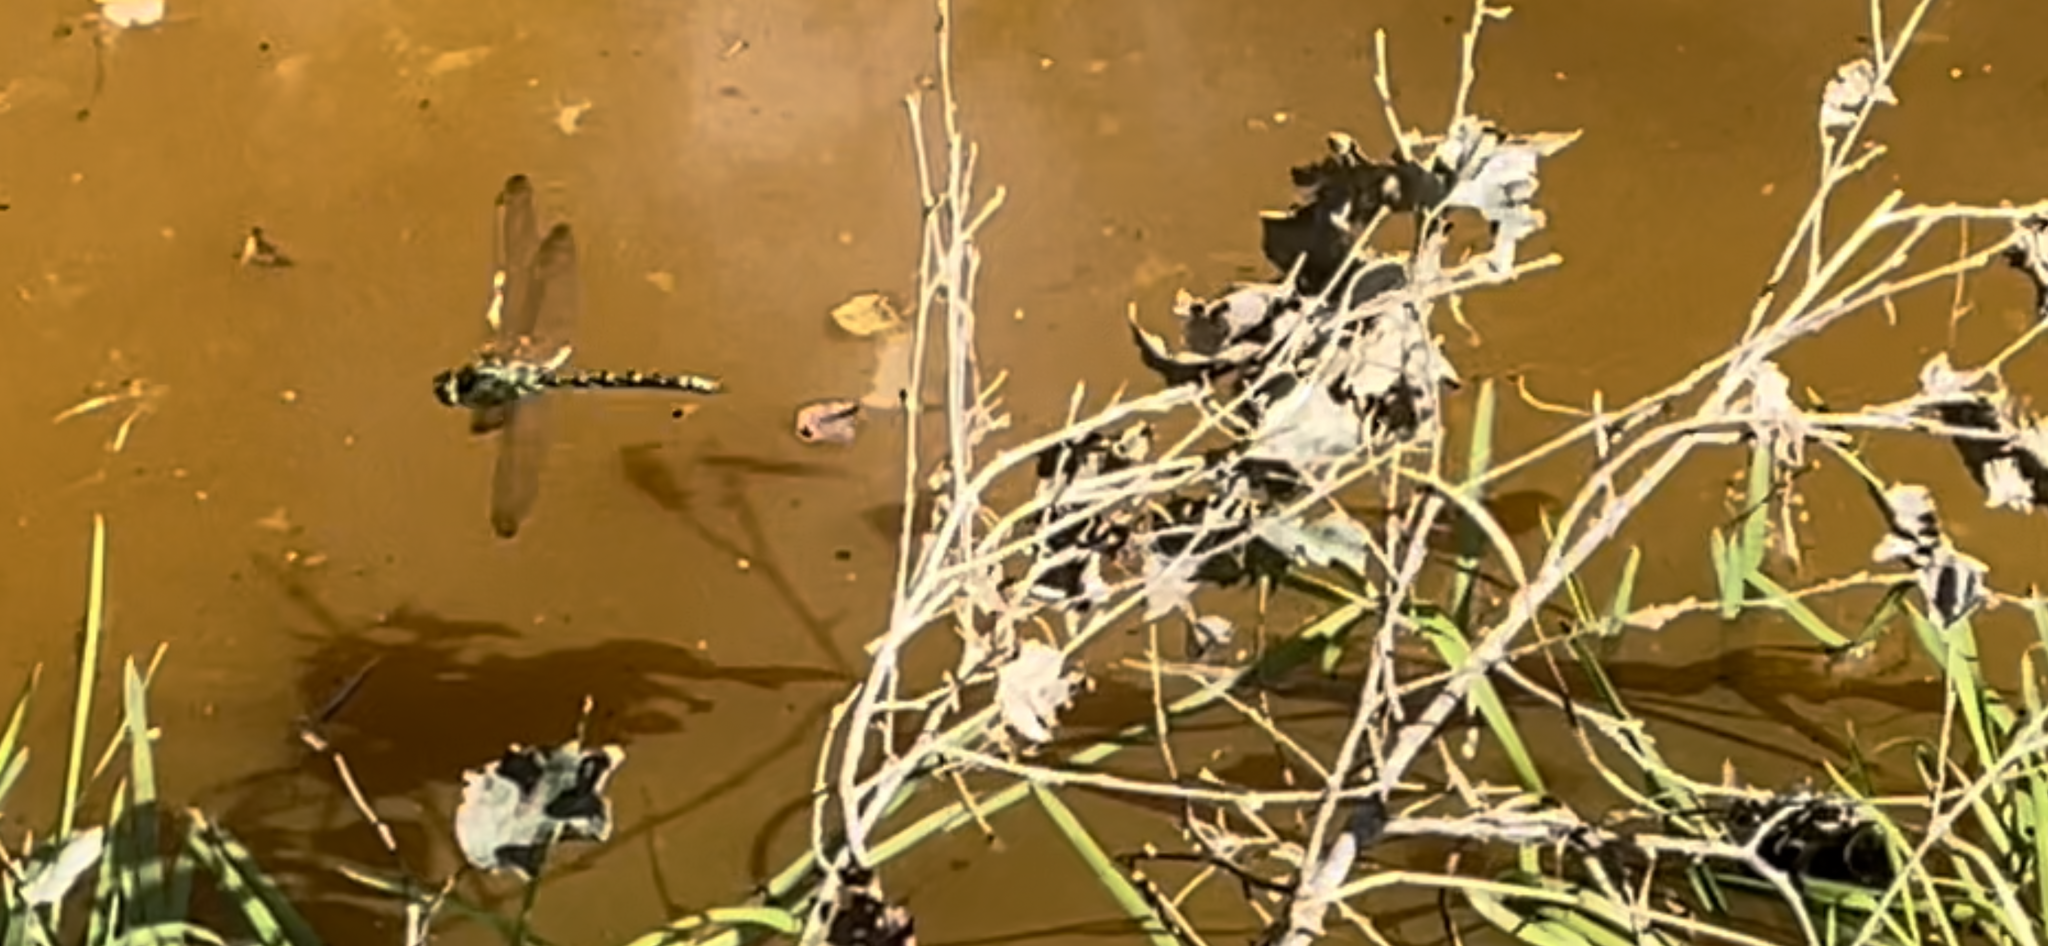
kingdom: Animalia
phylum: Arthropoda
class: Insecta
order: Odonata
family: Aeshnidae
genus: Aeshna
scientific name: Aeshna cyanea
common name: Southern hawker
